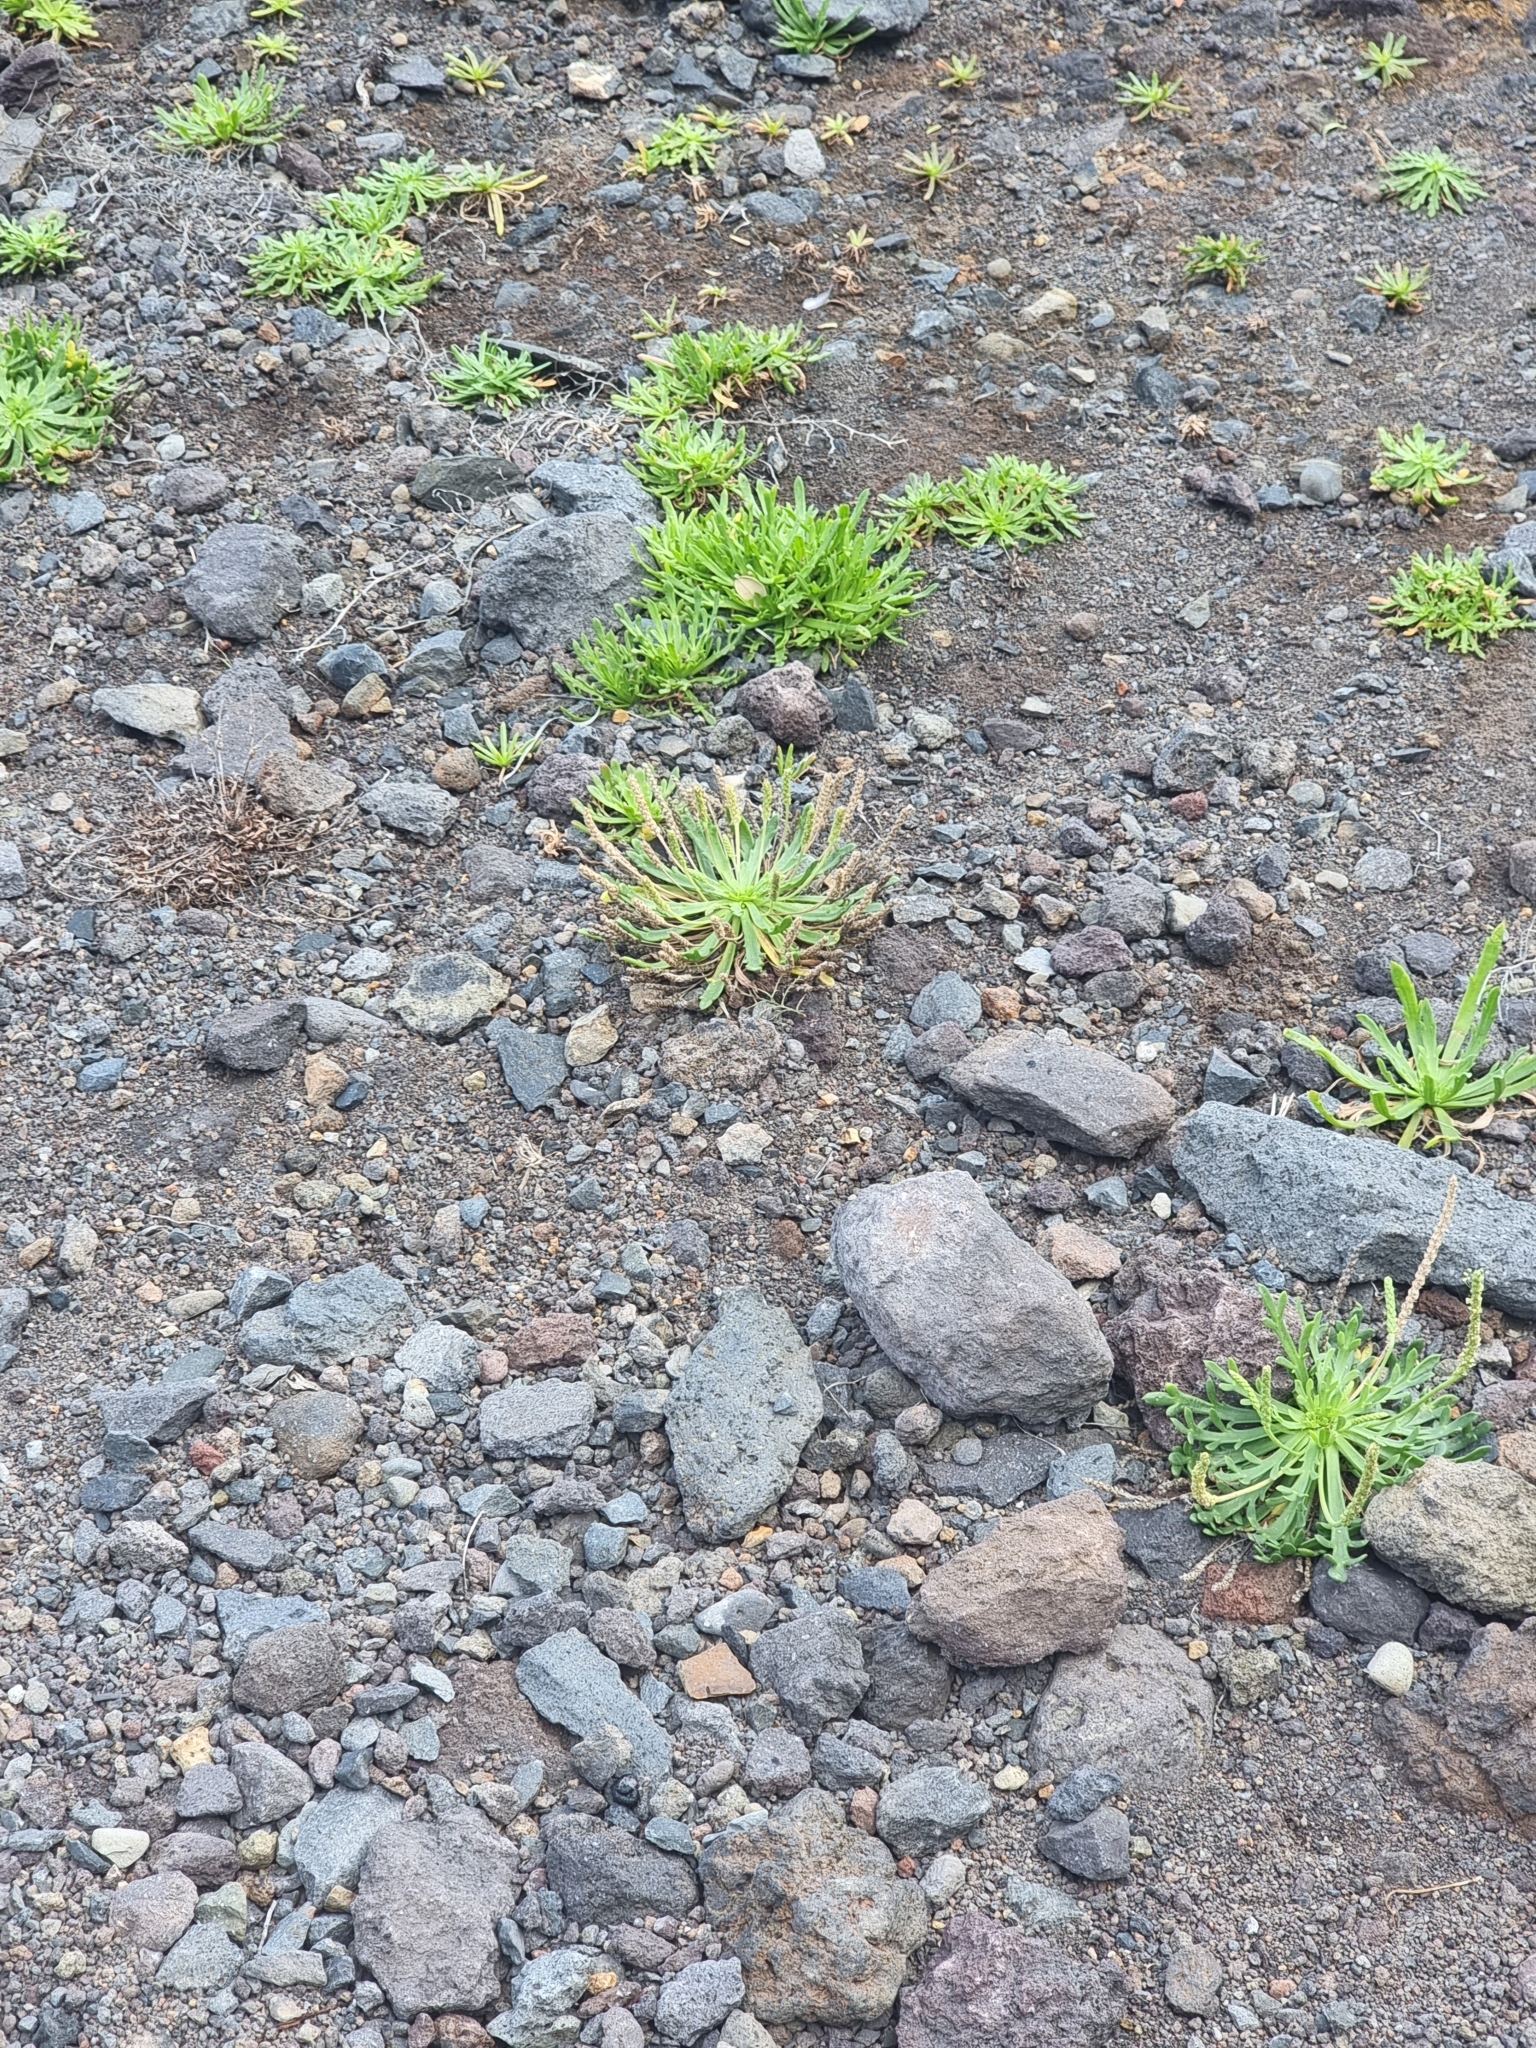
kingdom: Plantae
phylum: Tracheophyta
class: Magnoliopsida
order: Lamiales
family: Plantaginaceae
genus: Plantago
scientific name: Plantago coronopus
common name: Buck's-horn plantain
